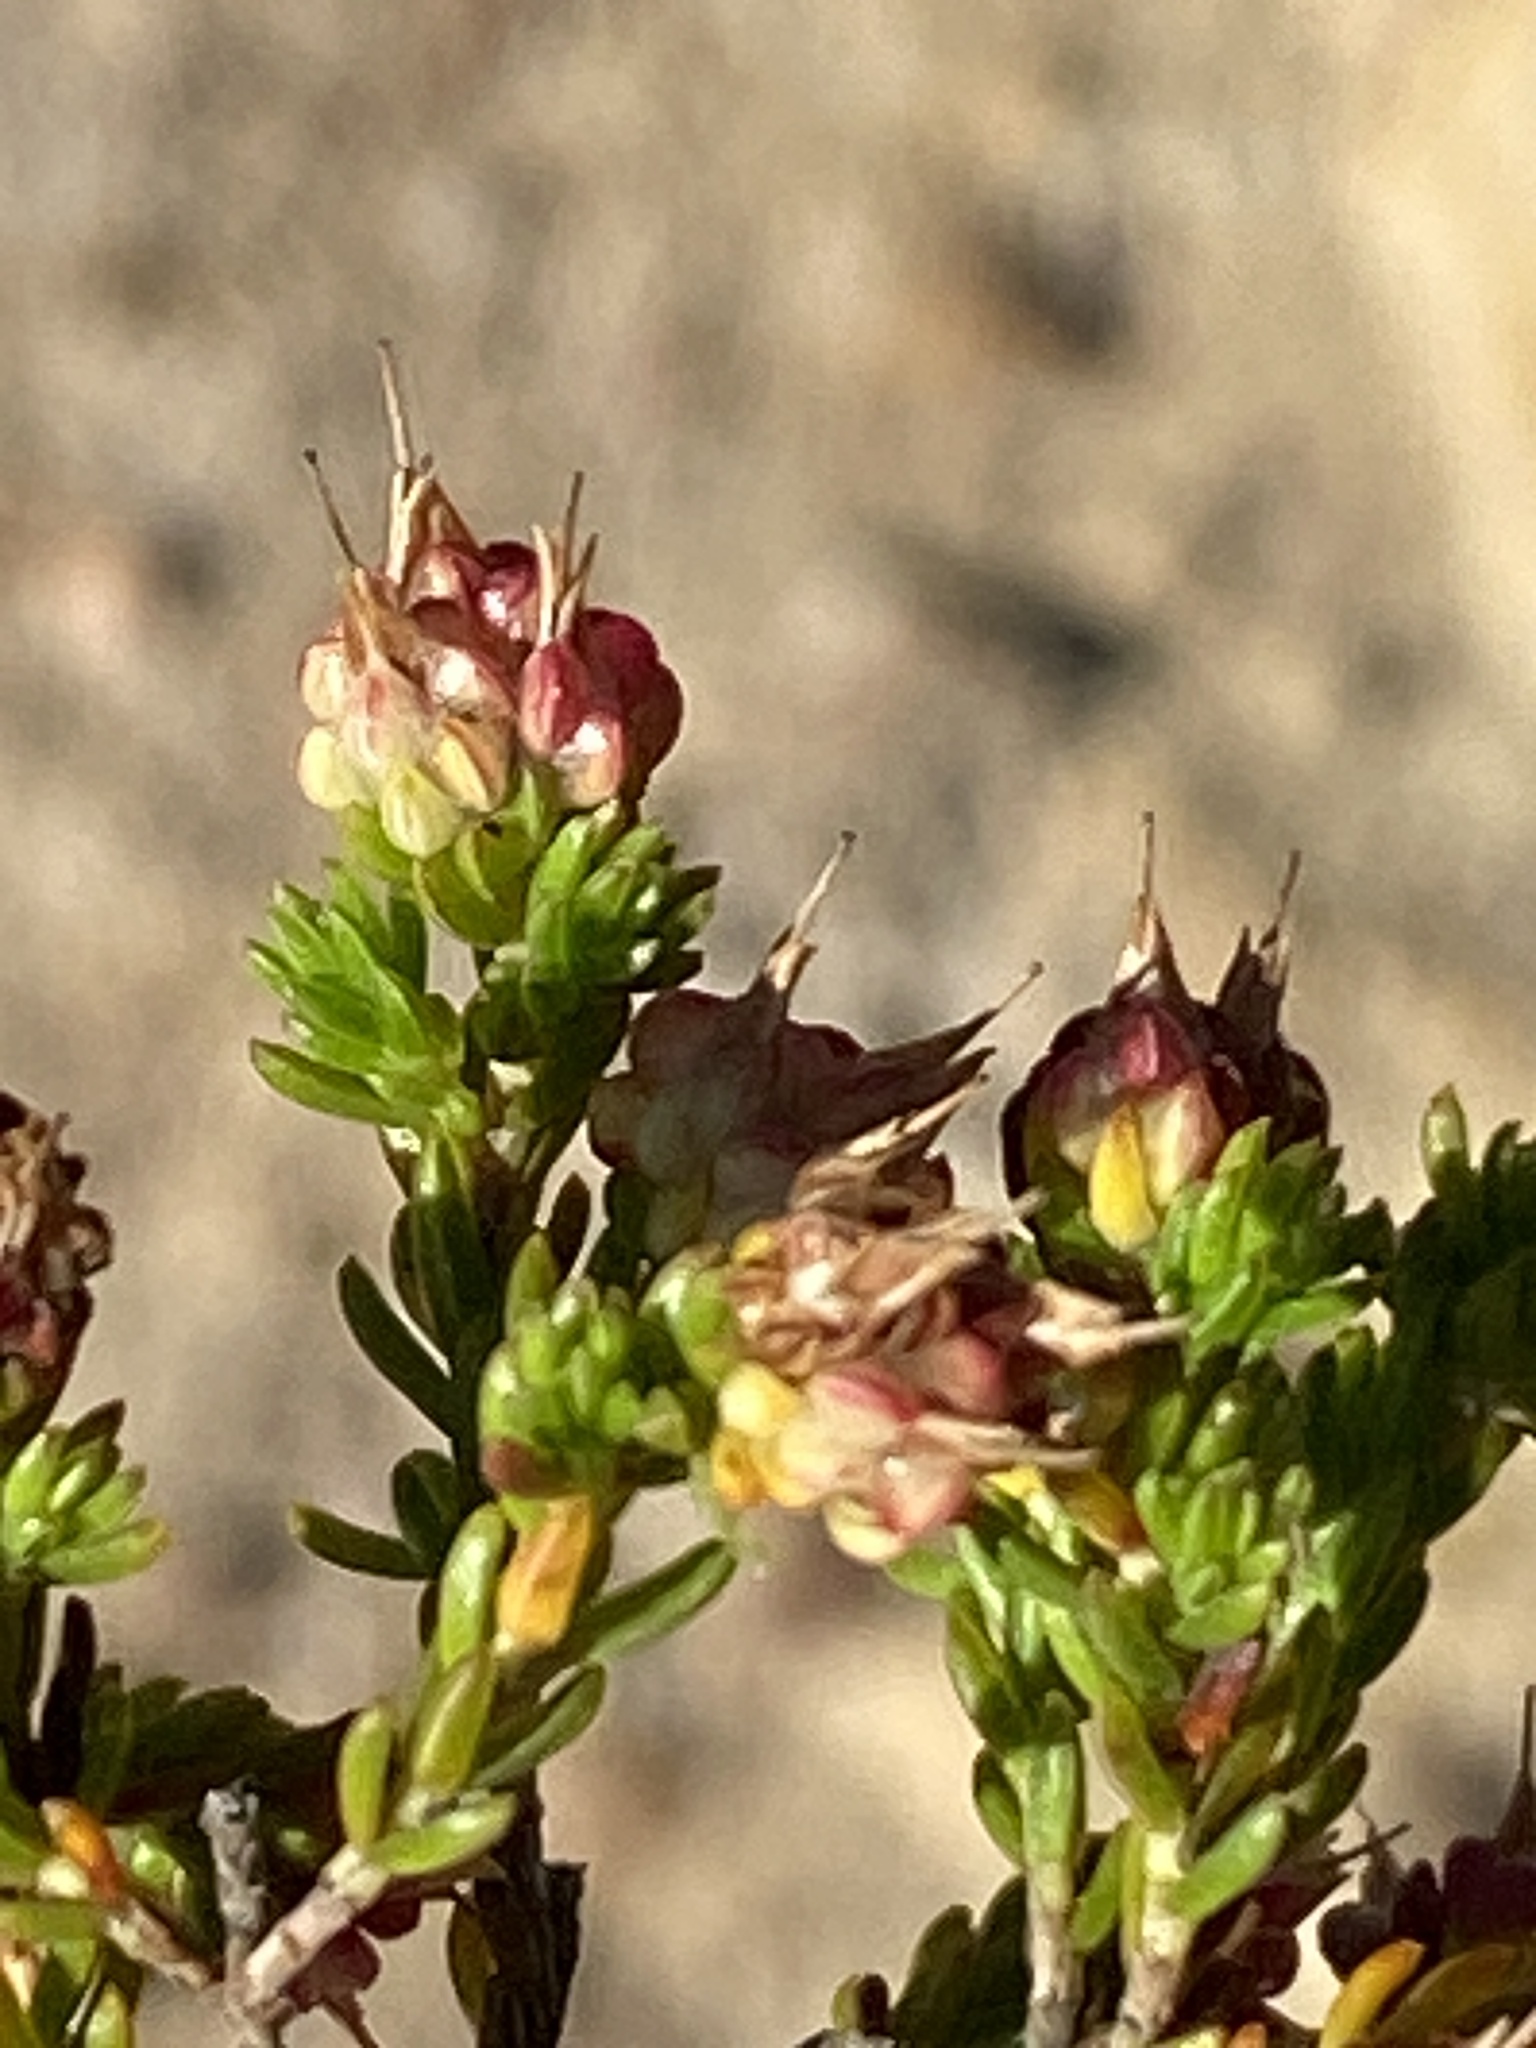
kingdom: Plantae
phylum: Tracheophyta
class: Magnoliopsida
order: Ericales
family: Ericaceae
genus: Erica
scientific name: Erica spumosa
